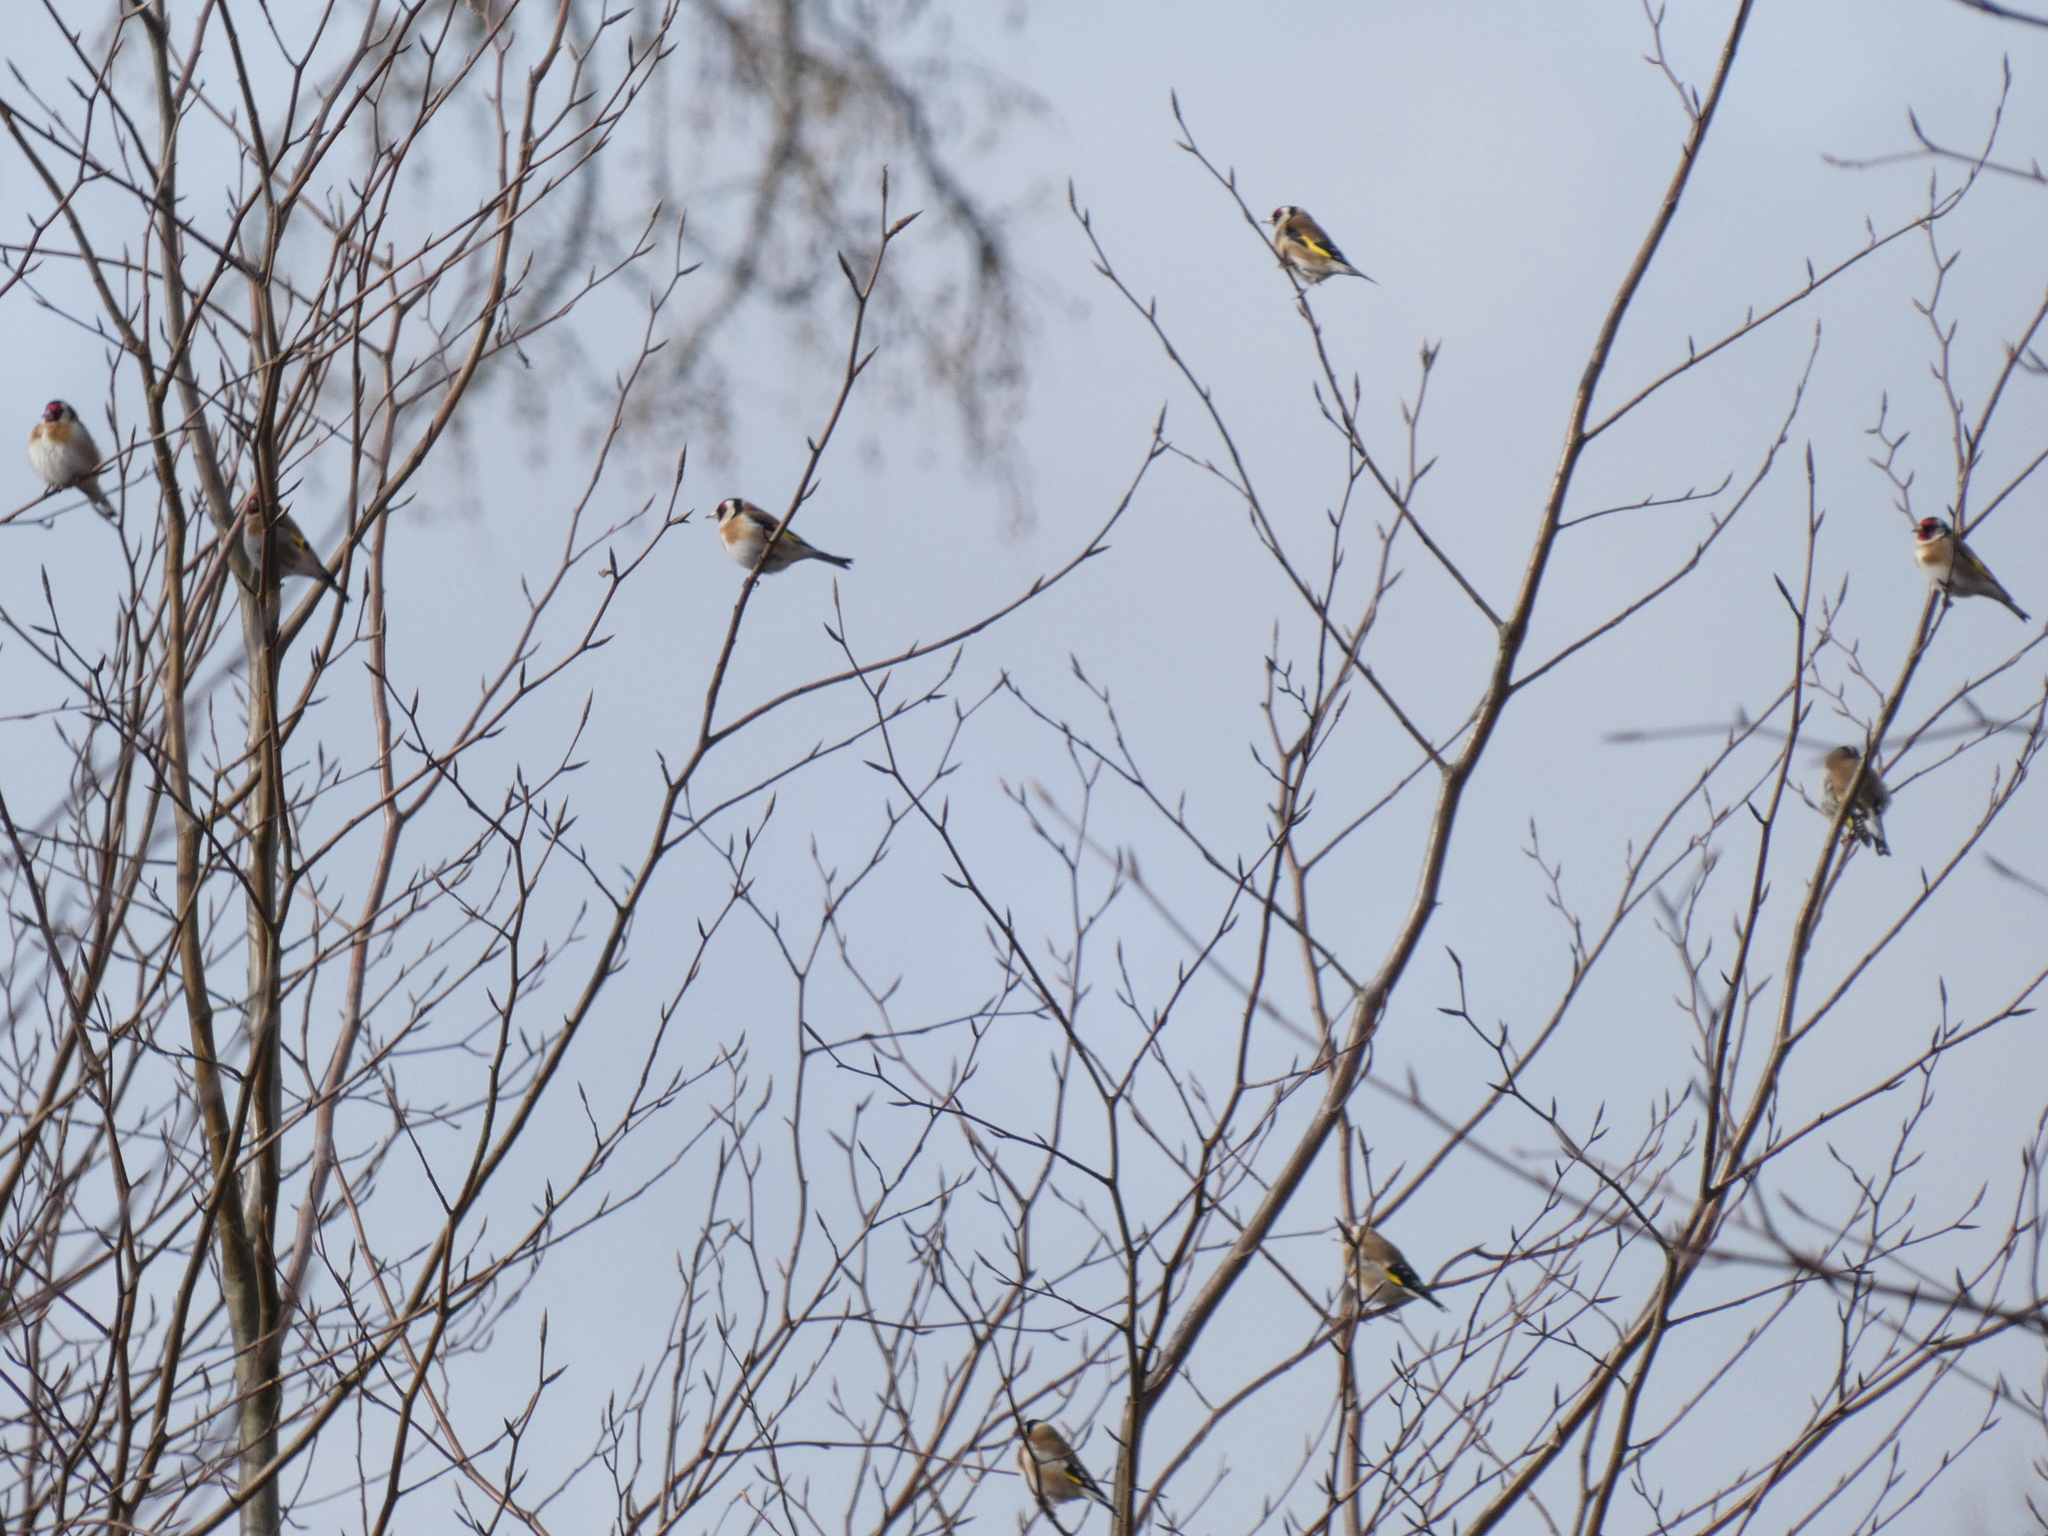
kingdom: Animalia
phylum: Chordata
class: Aves
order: Passeriformes
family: Fringillidae
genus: Carduelis
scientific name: Carduelis carduelis
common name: European goldfinch
